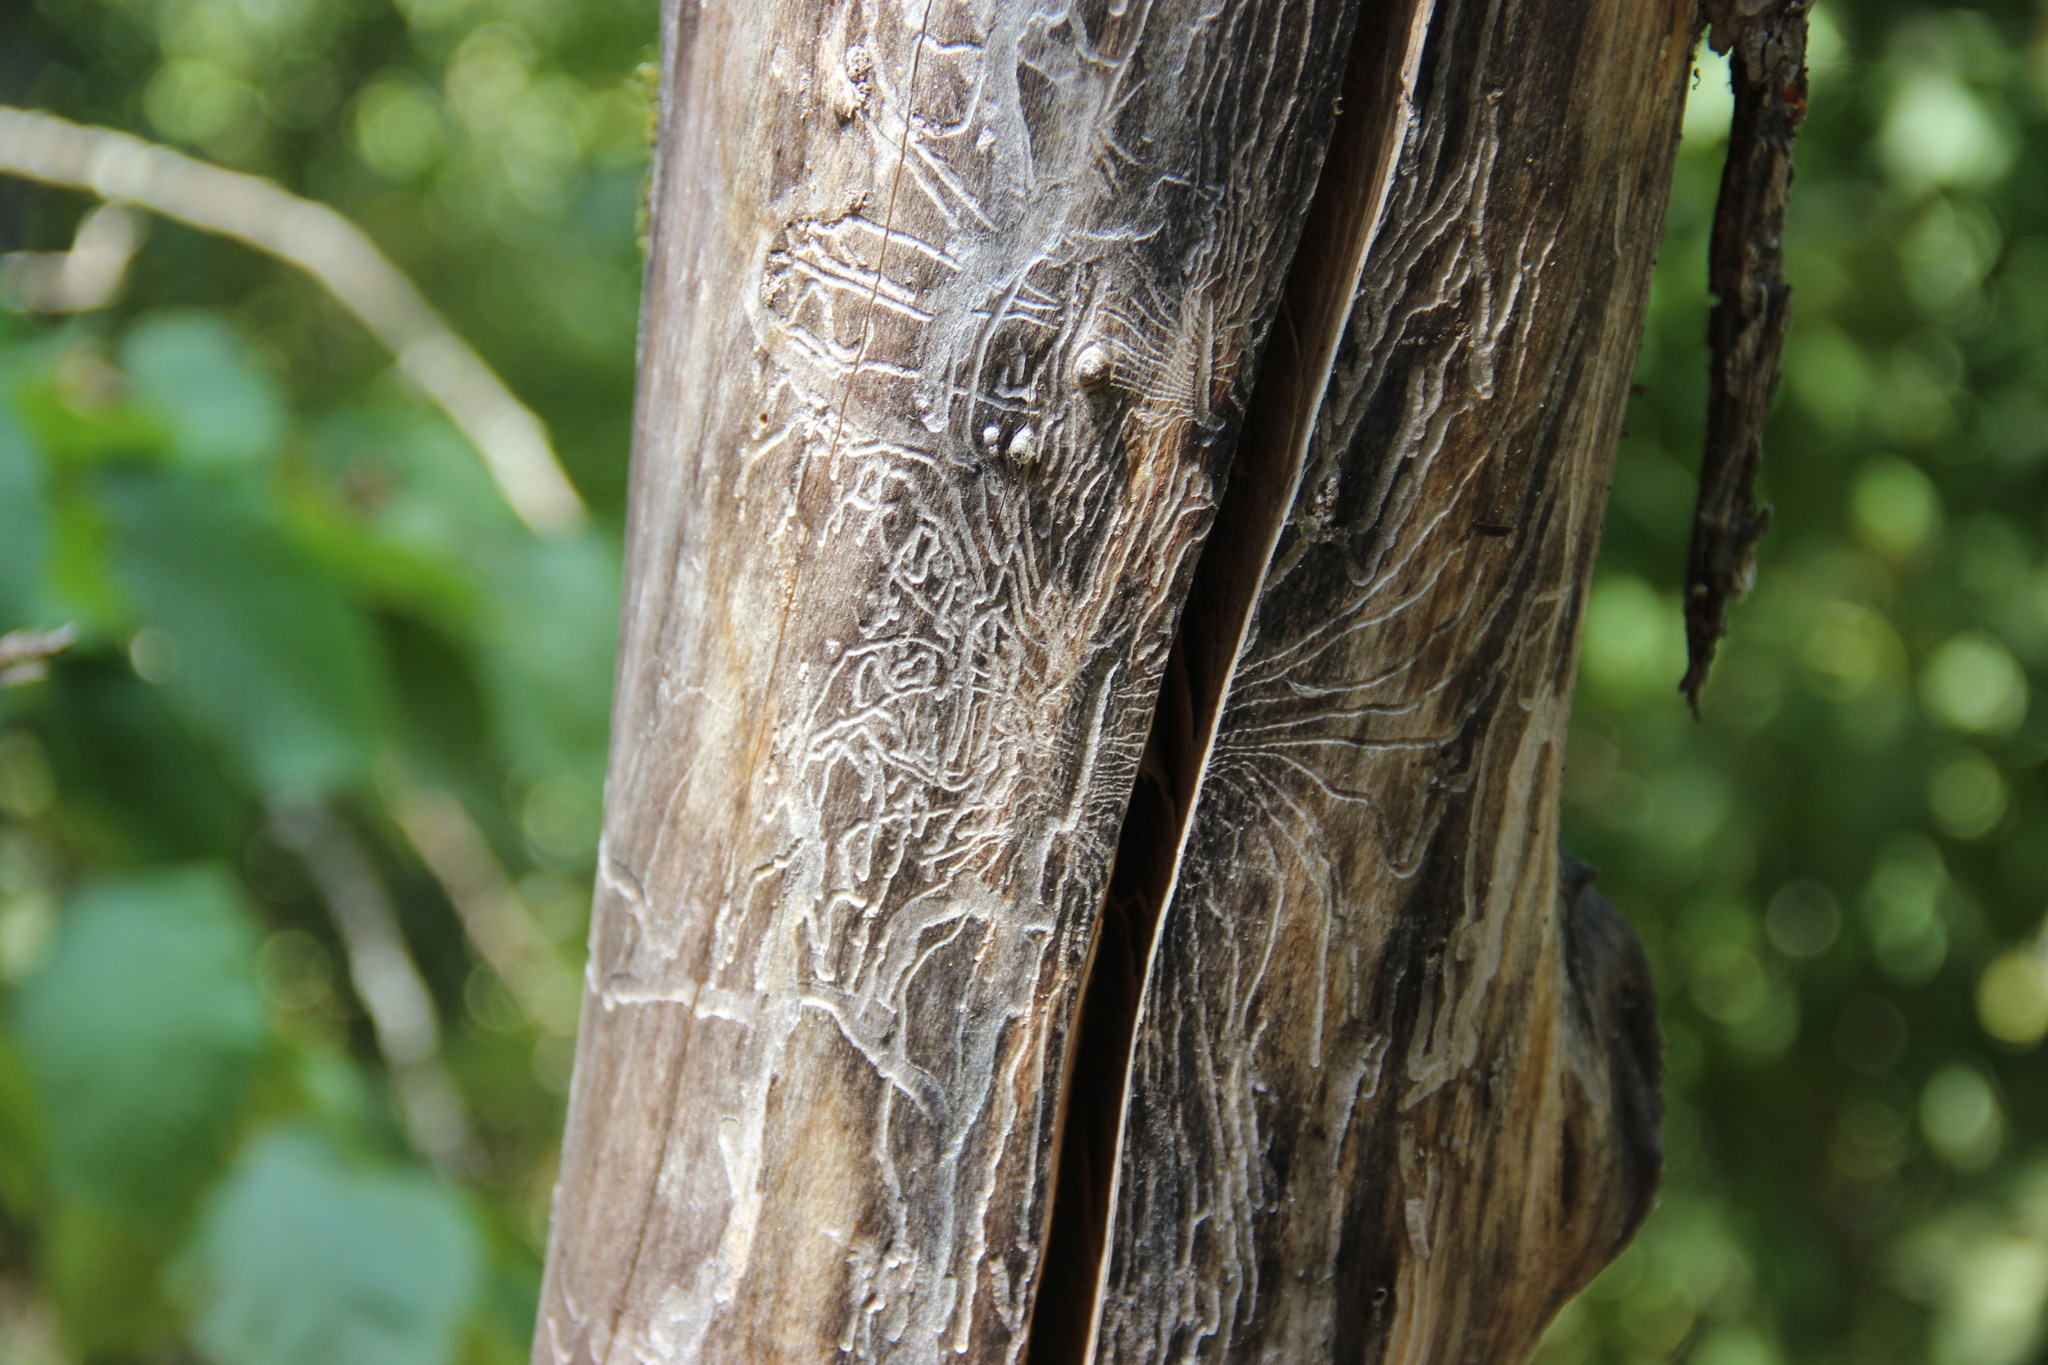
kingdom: Animalia
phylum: Arthropoda
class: Insecta
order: Coleoptera
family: Curculionidae
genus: Scolytus
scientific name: Scolytus multistriatus
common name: European elm bark beetle
